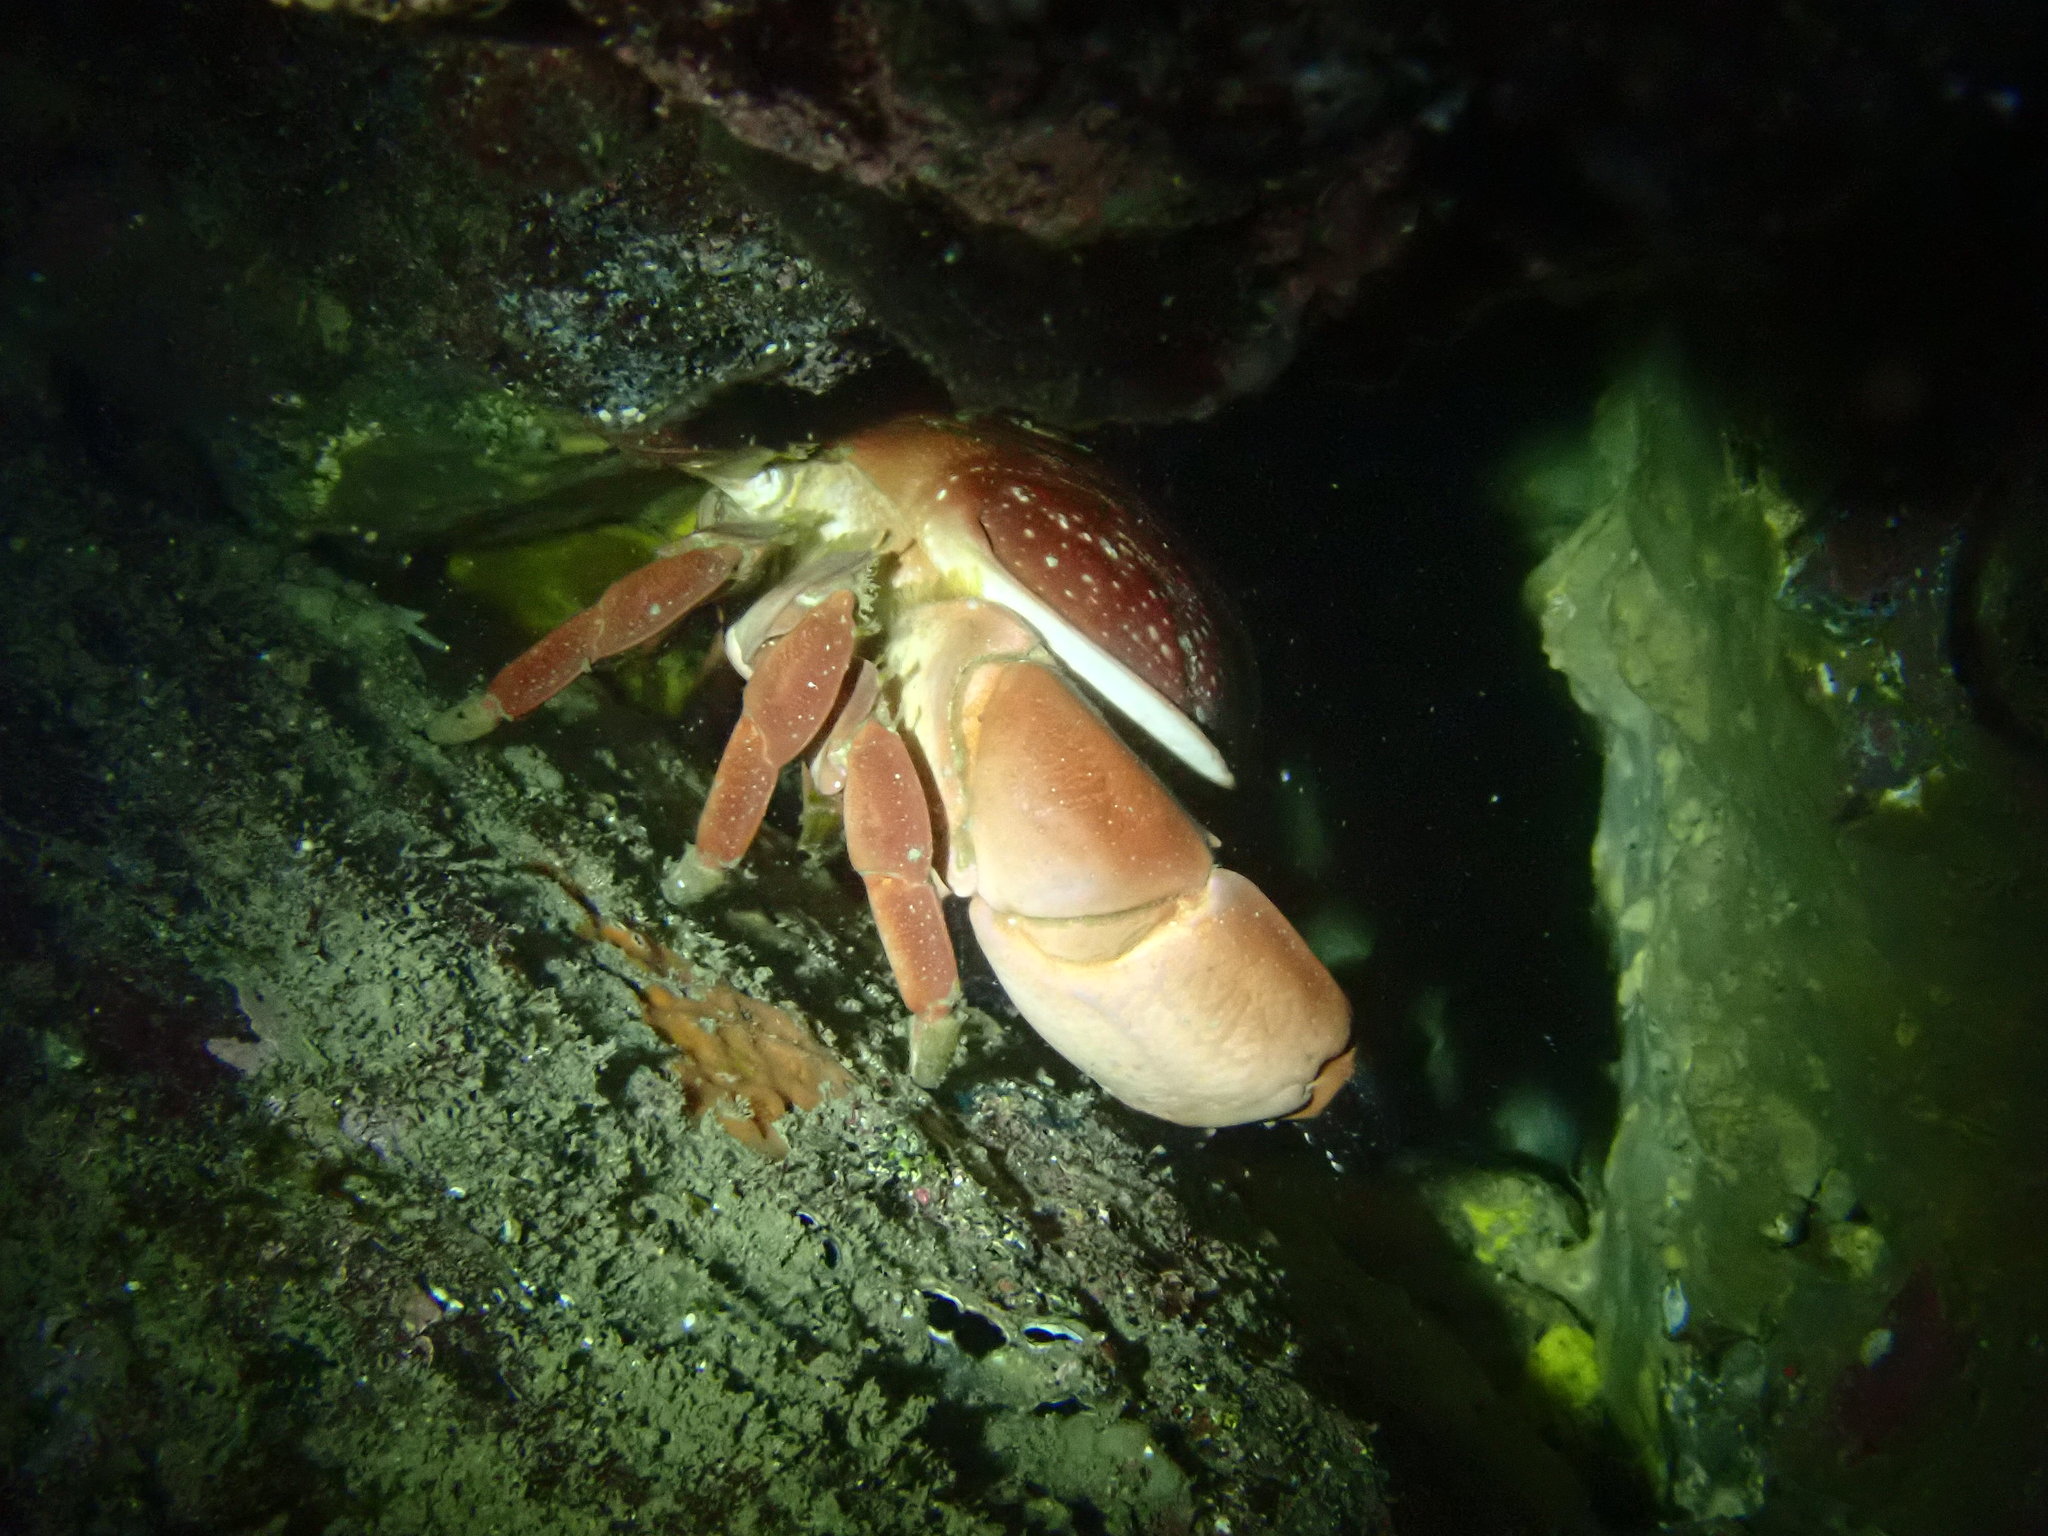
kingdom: Animalia
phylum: Arthropoda
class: Malacostraca
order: Decapoda
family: Xanthidae
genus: Atergatis
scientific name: Atergatis integerrimus
